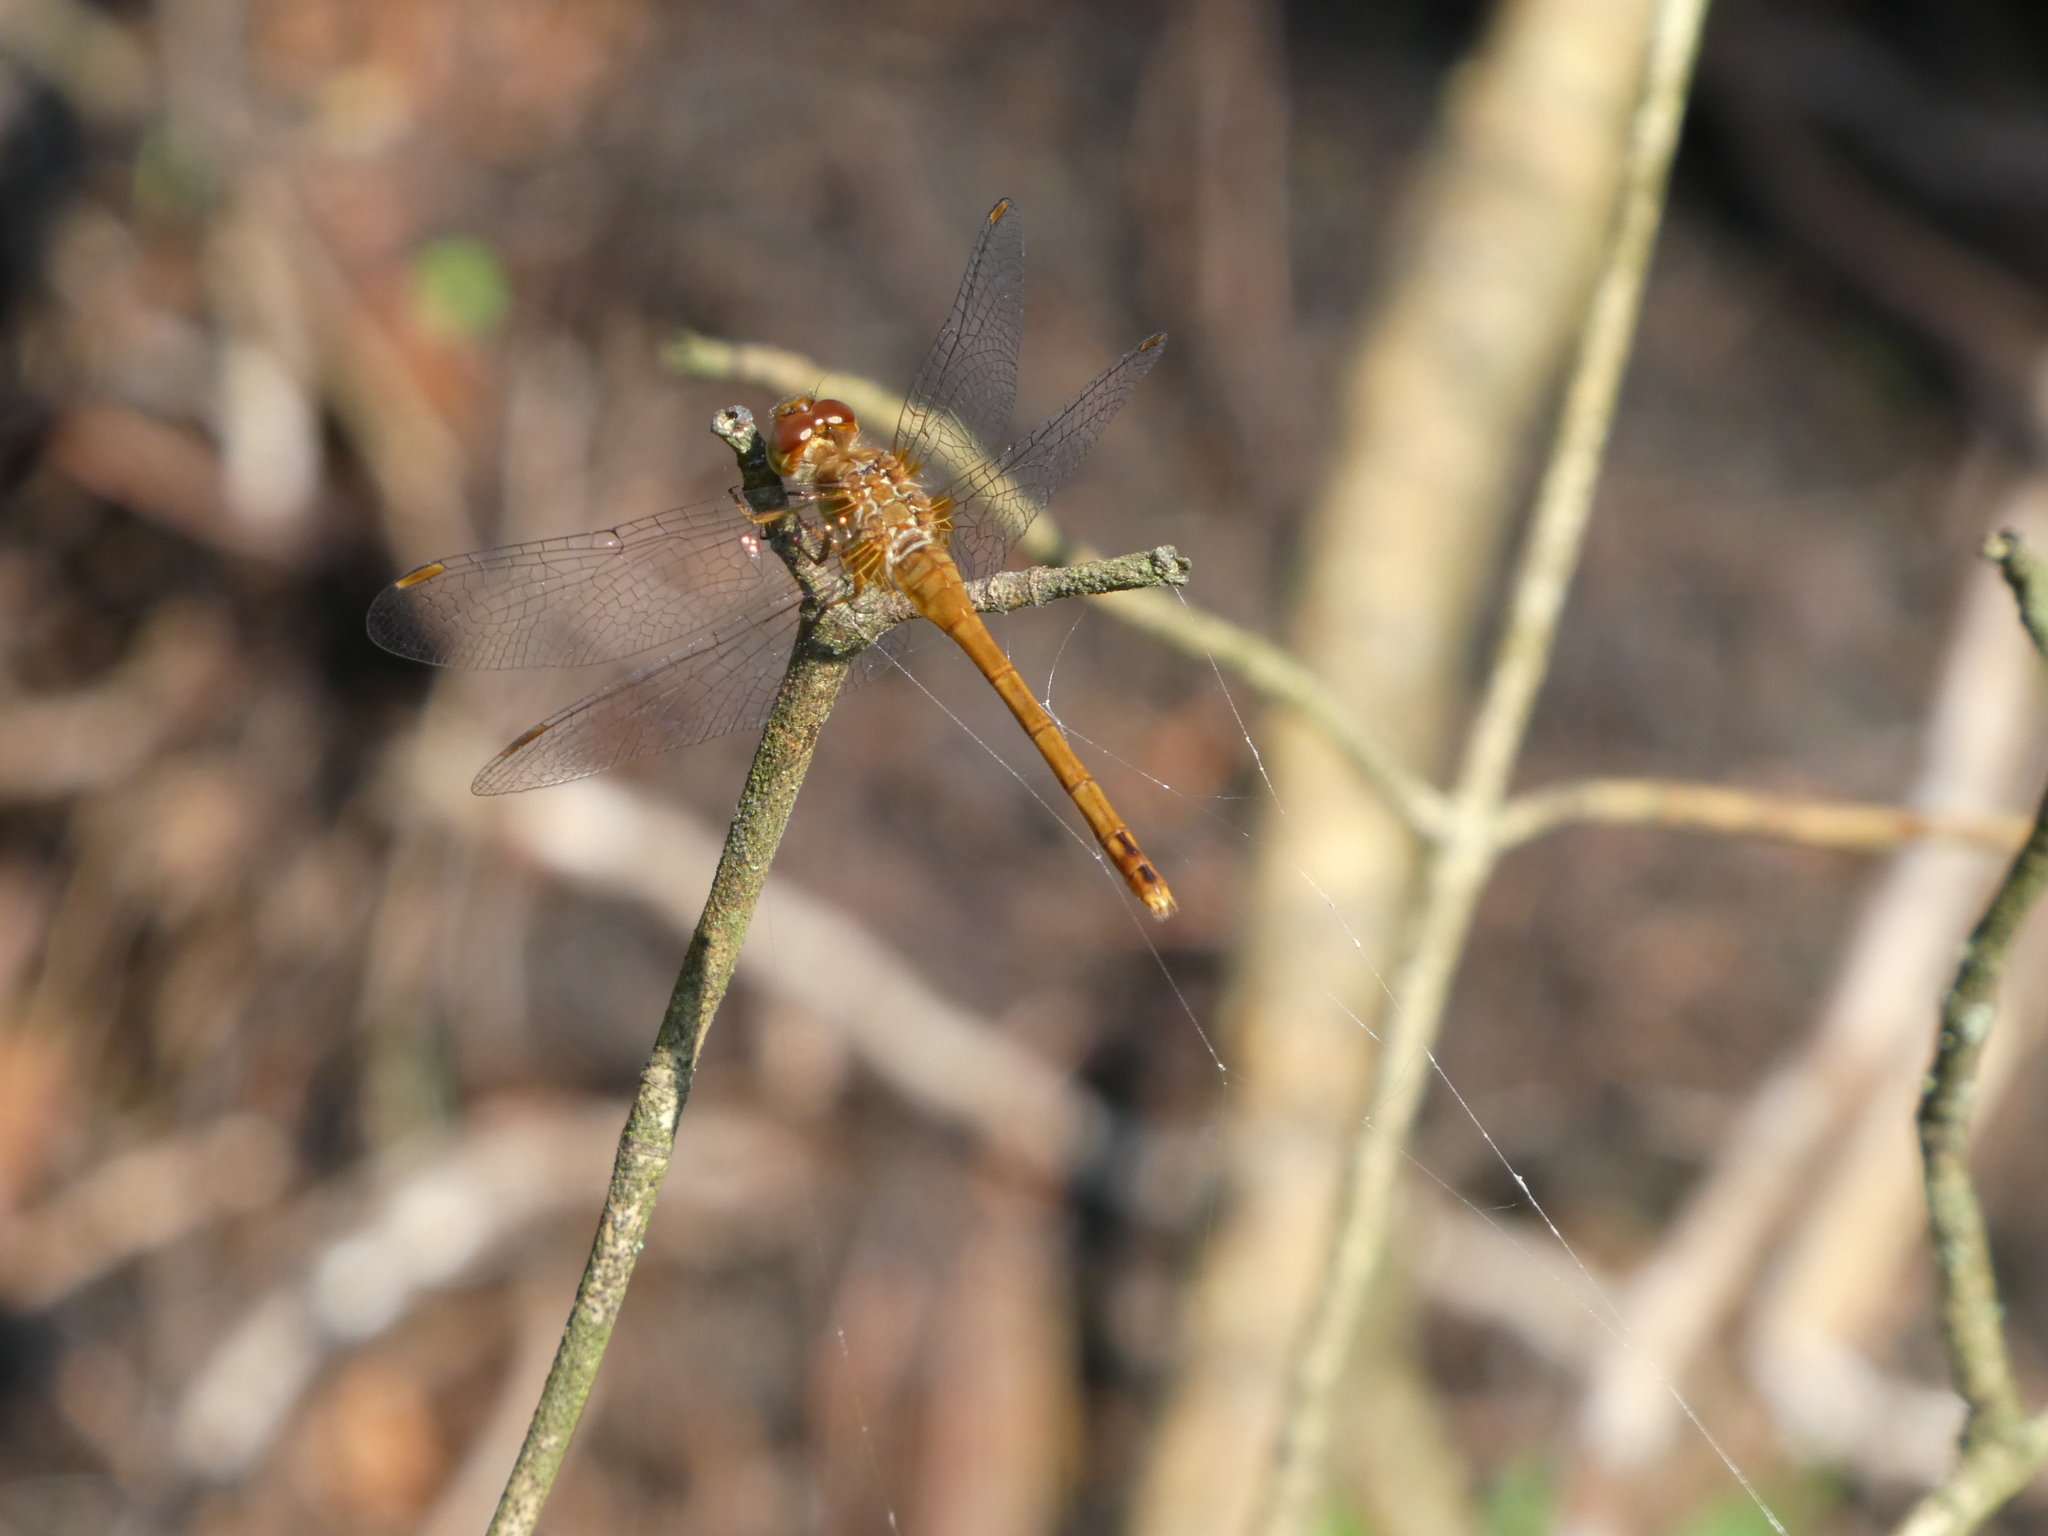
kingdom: Animalia
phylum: Arthropoda
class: Insecta
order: Odonata
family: Libellulidae
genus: Sympetrum
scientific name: Sympetrum vicinum
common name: Autumn meadowhawk
